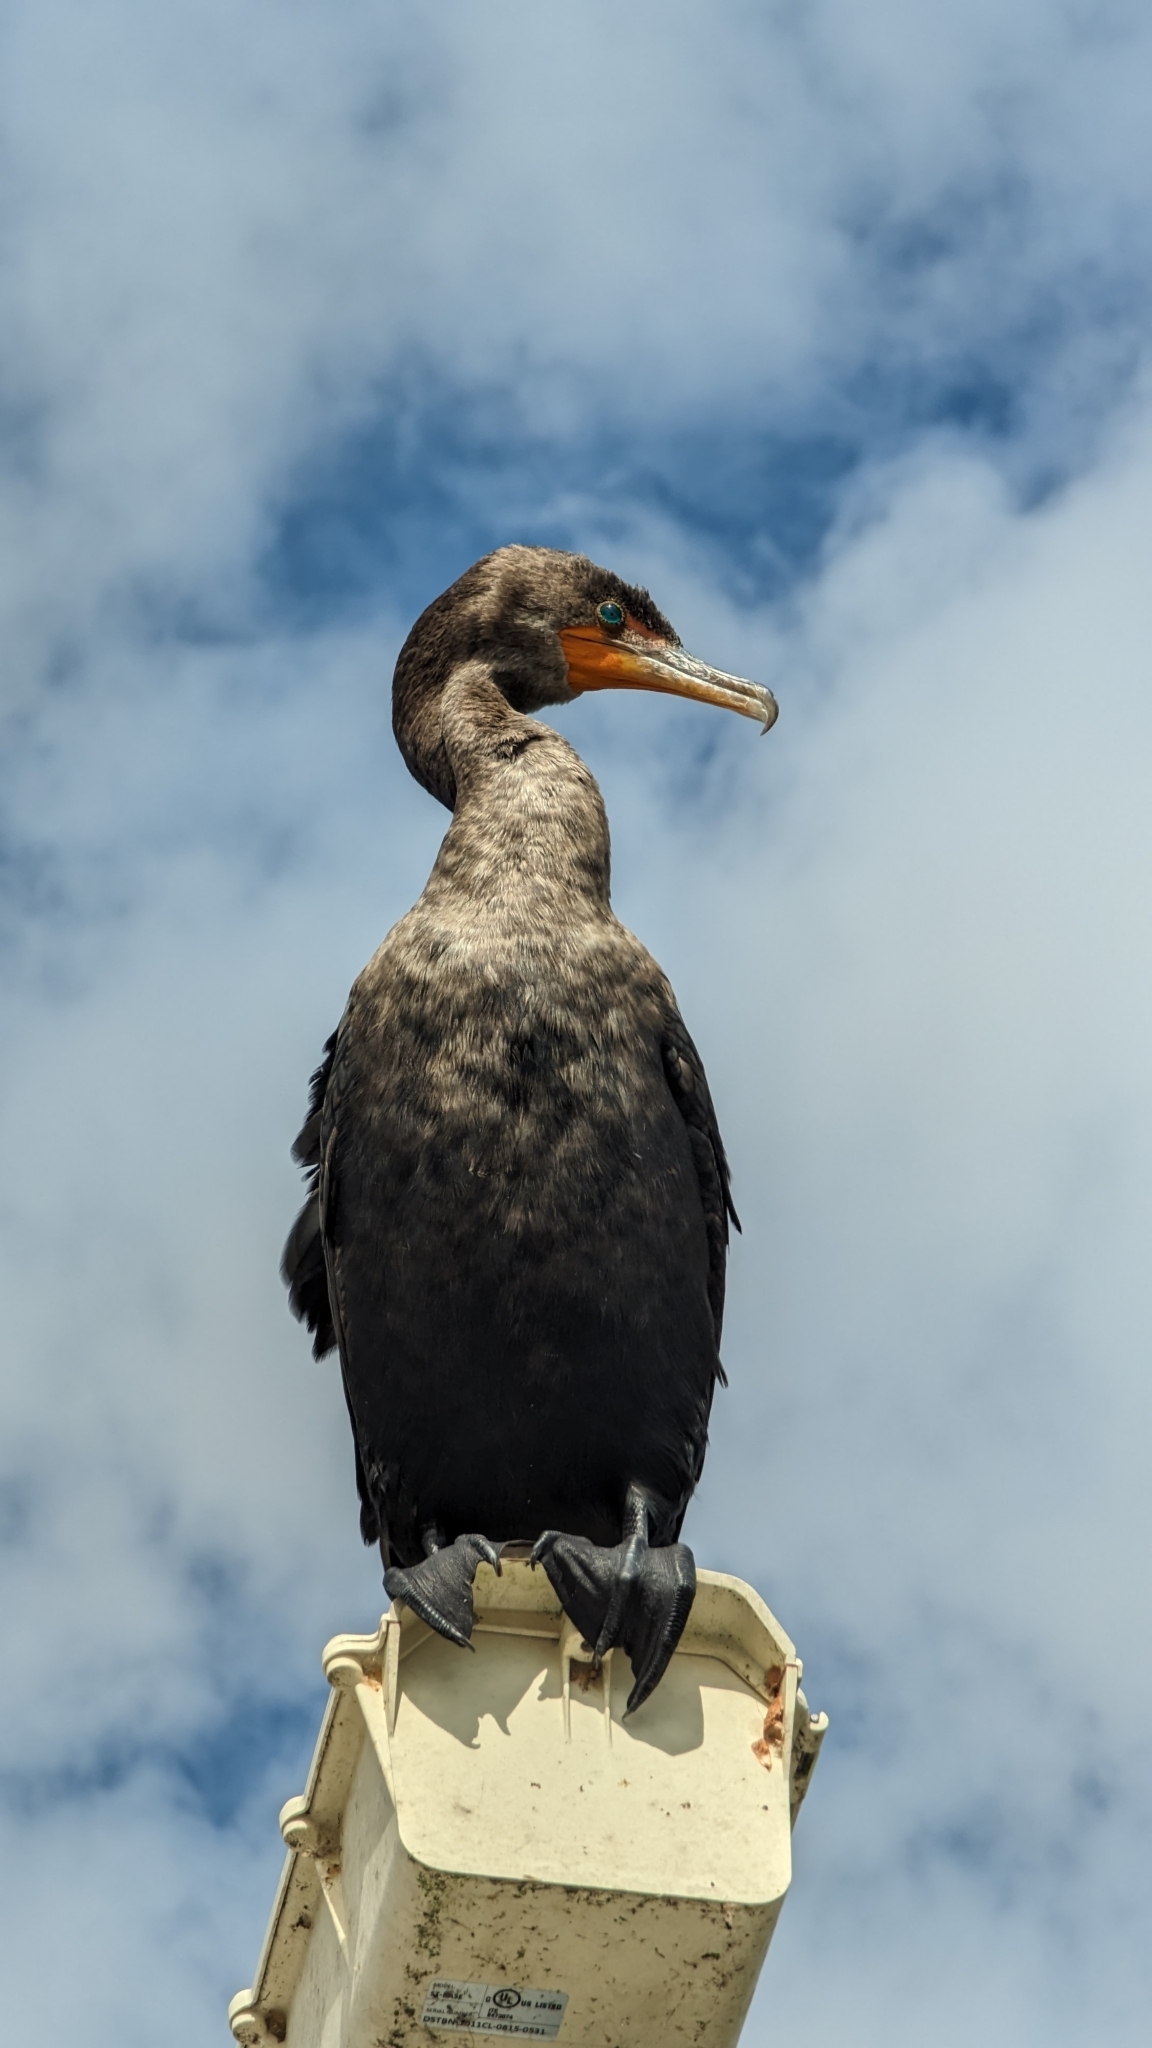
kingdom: Animalia
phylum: Chordata
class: Aves
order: Suliformes
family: Phalacrocoracidae
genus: Phalacrocorax
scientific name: Phalacrocorax auritus
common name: Double-crested cormorant
